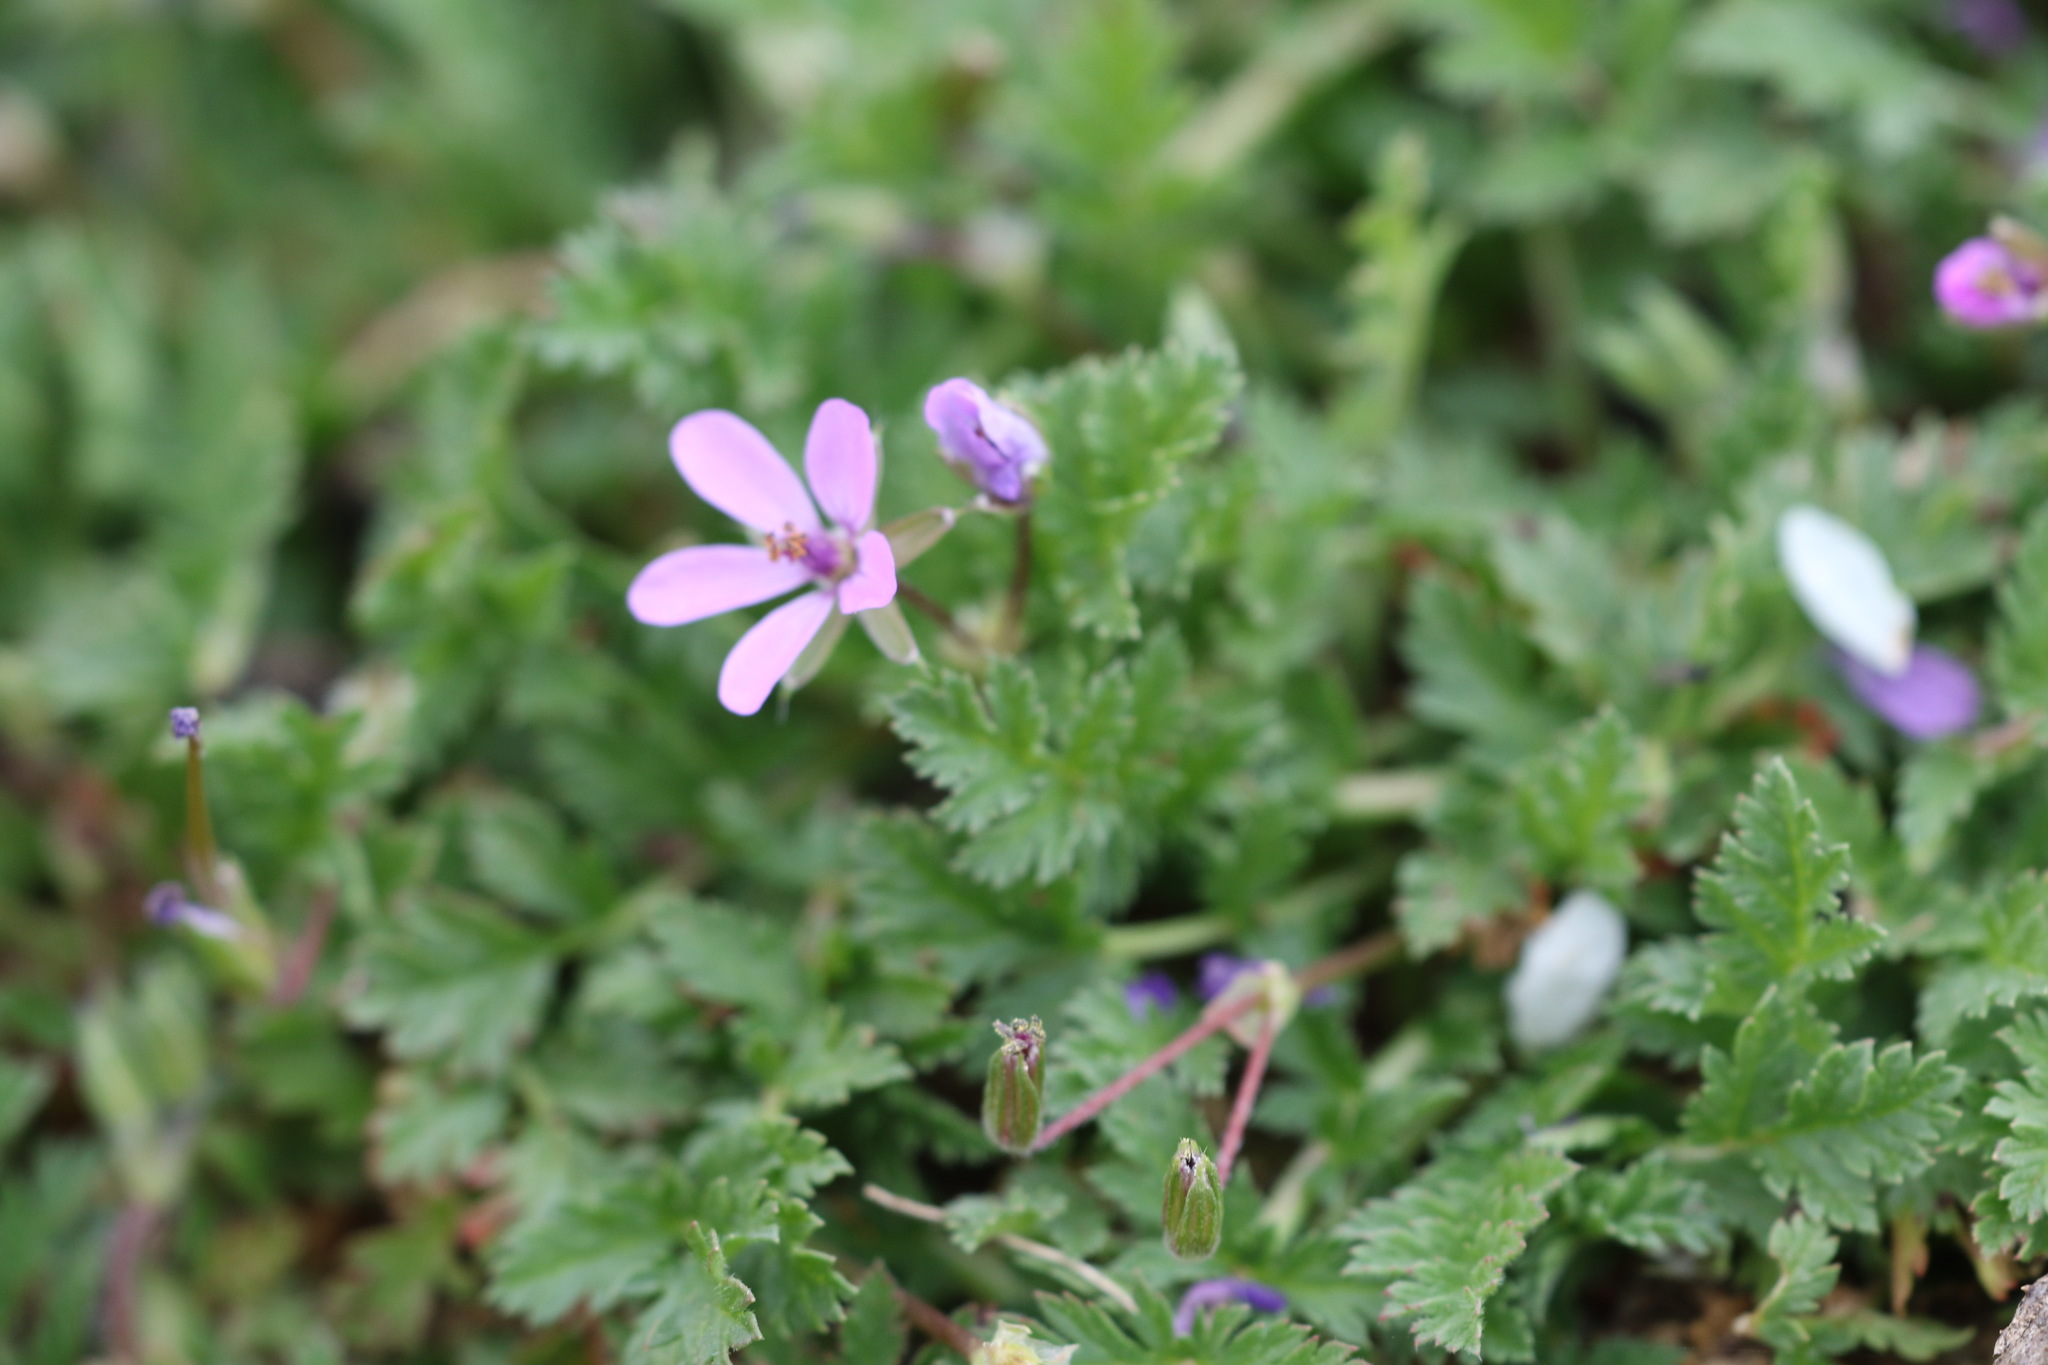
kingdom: Plantae
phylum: Tracheophyta
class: Magnoliopsida
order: Geraniales
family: Geraniaceae
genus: Erodium
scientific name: Erodium cicutarium
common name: Common stork's-bill
